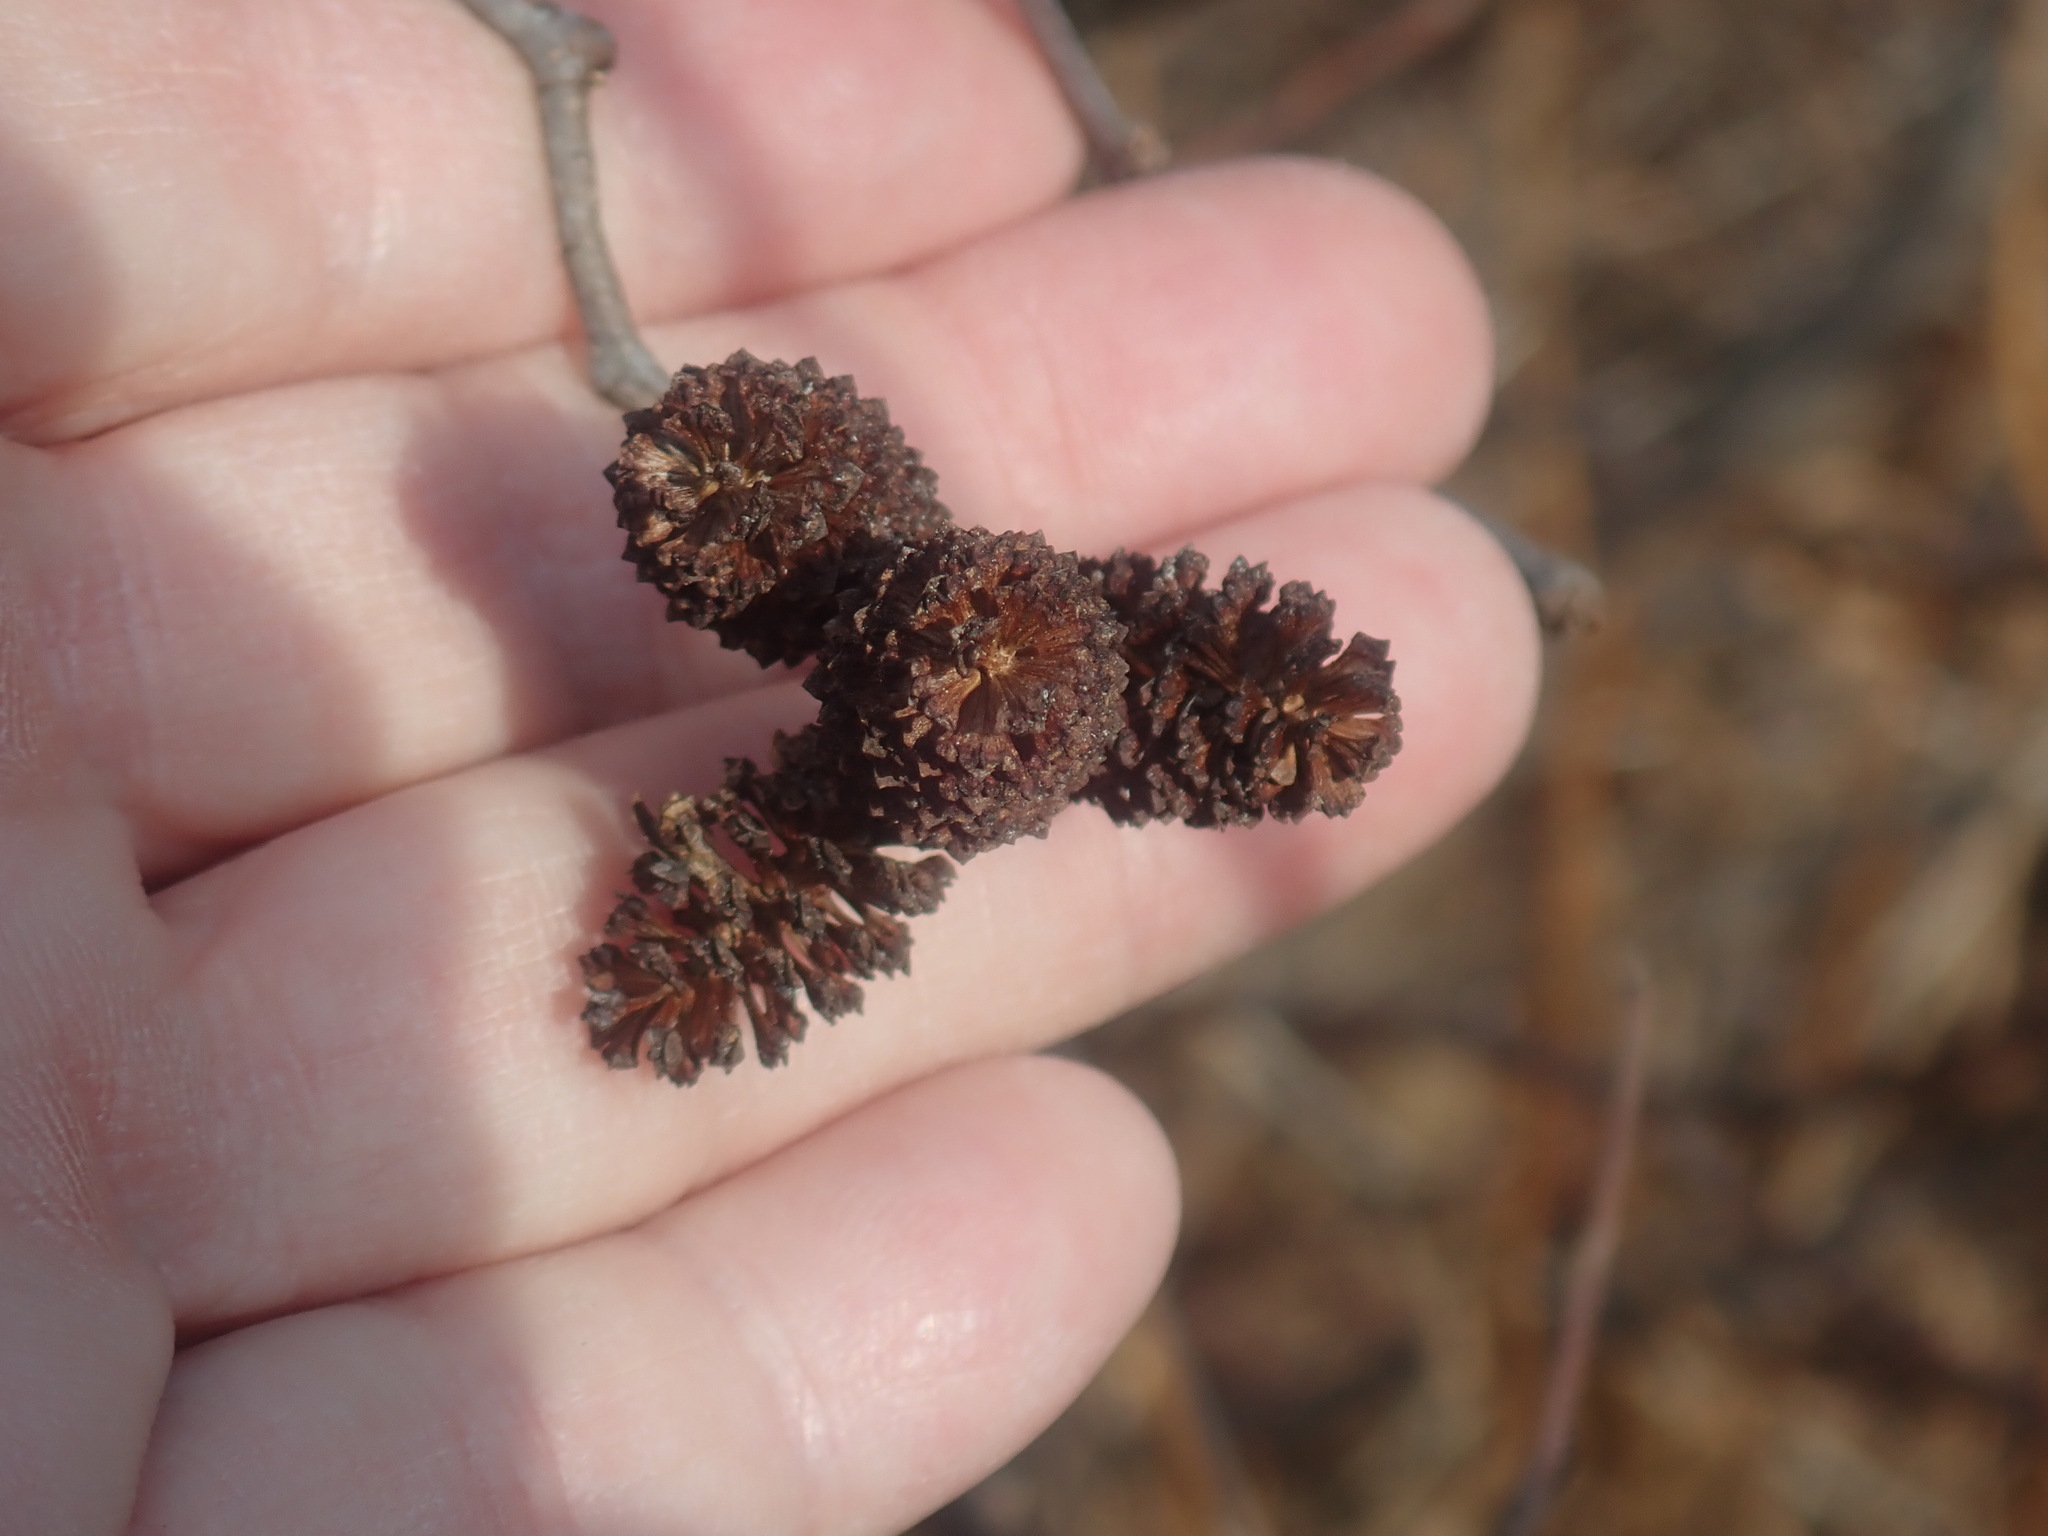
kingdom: Plantae
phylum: Tracheophyta
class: Magnoliopsida
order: Fagales
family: Betulaceae
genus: Alnus
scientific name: Alnus
